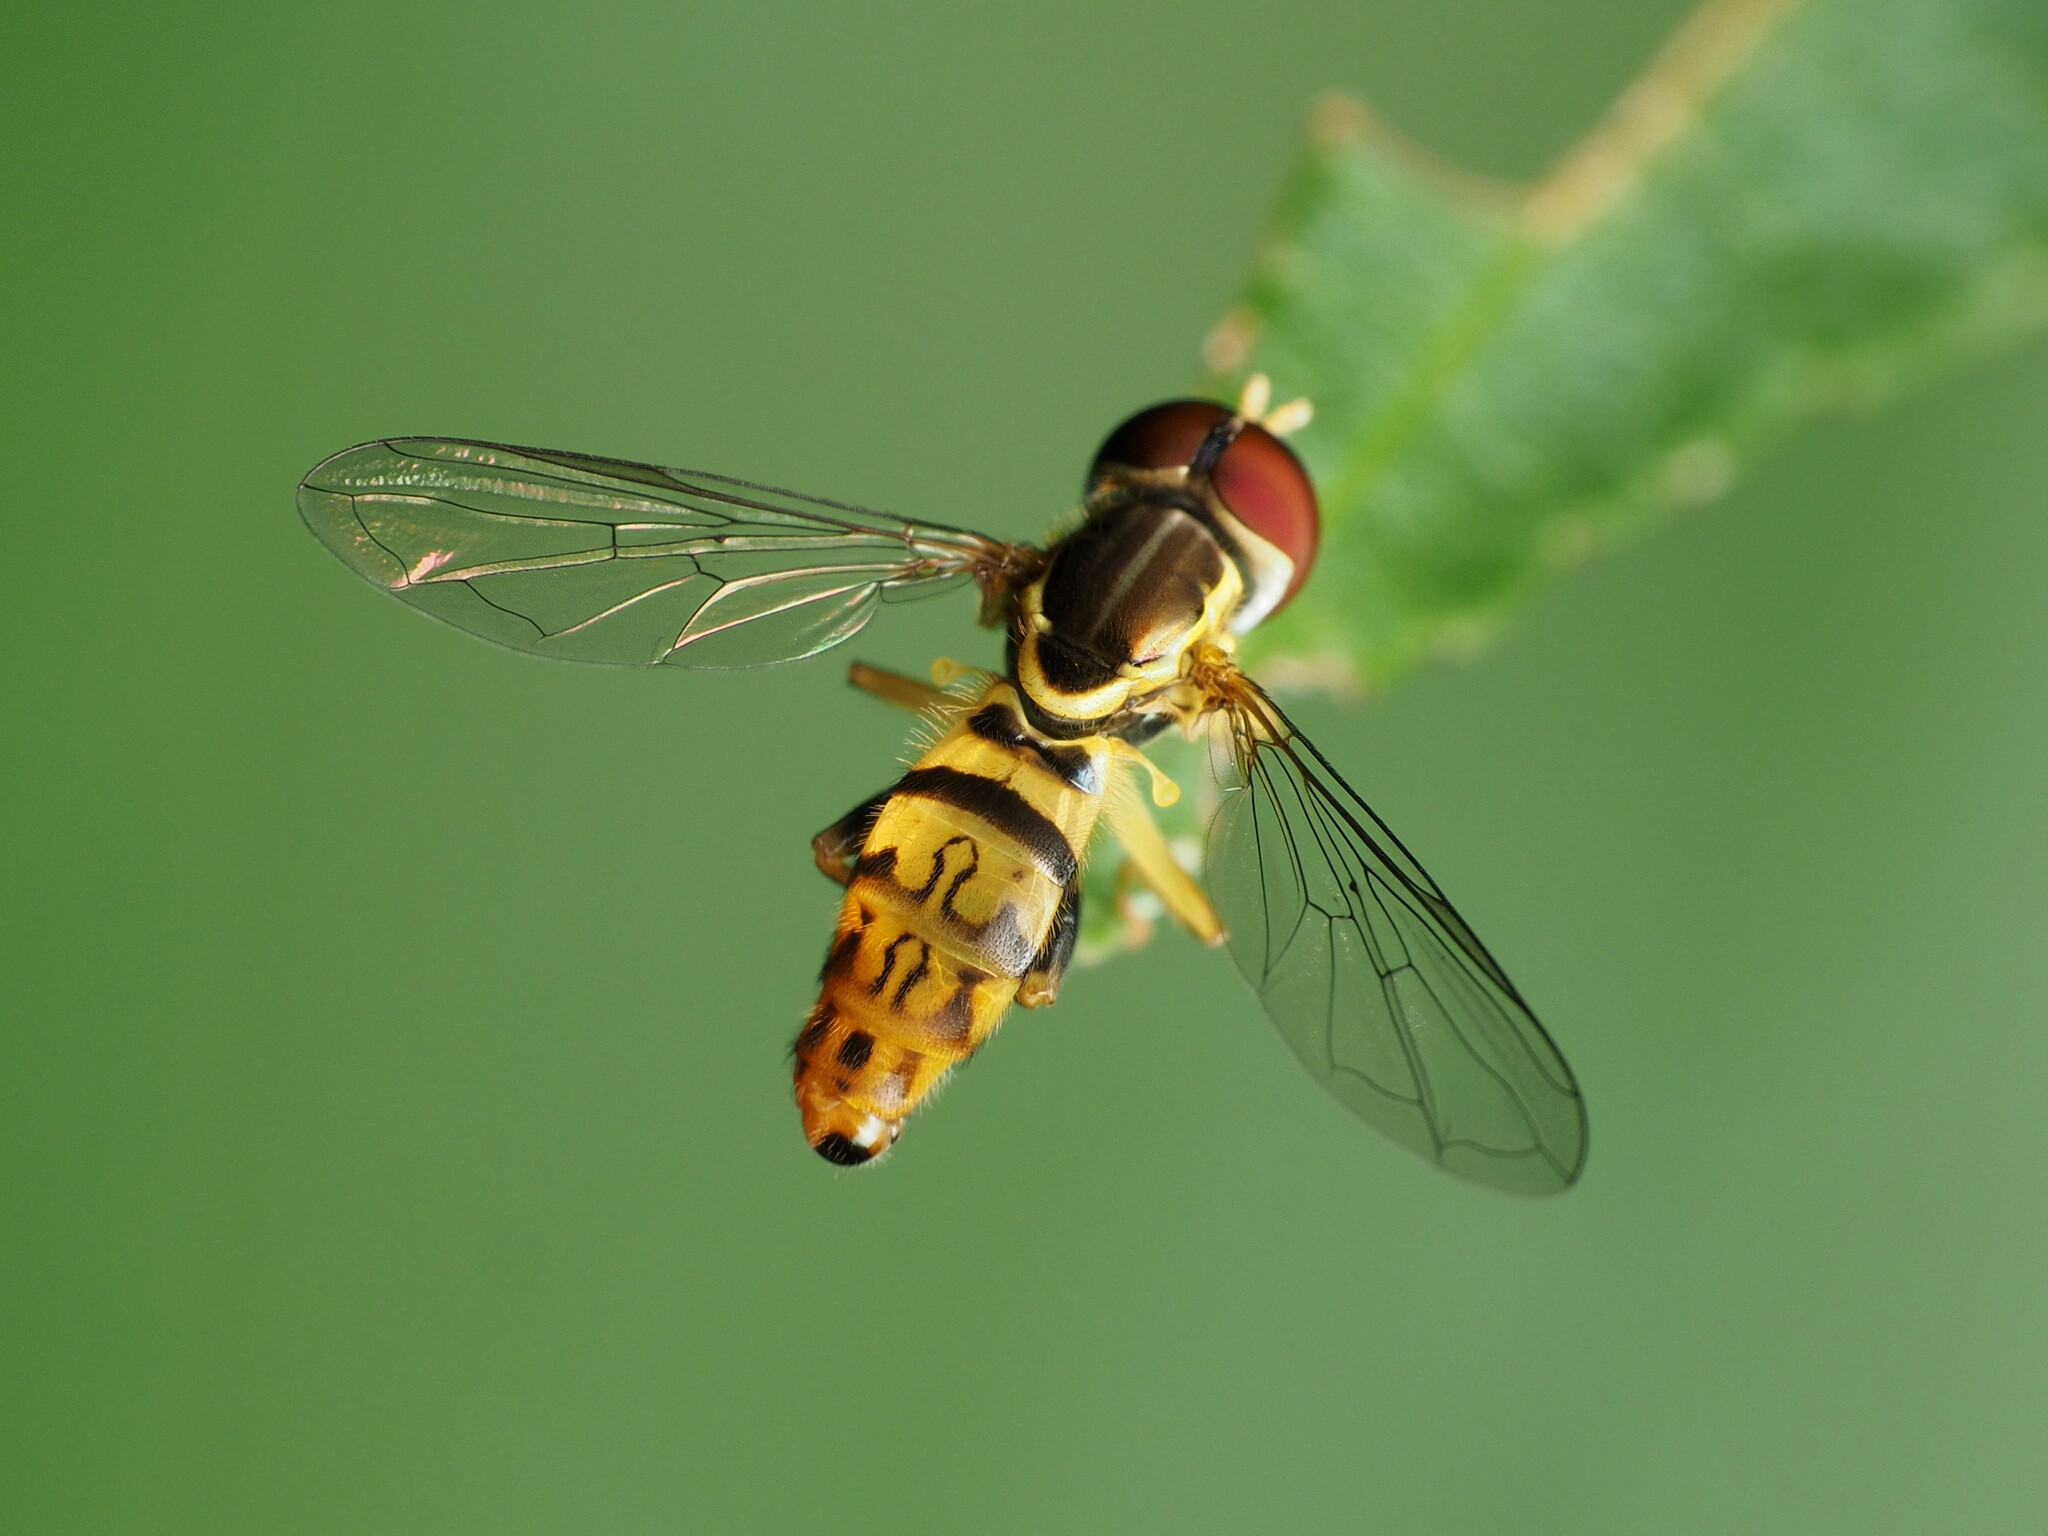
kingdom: Animalia
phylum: Arthropoda
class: Insecta
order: Diptera
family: Syrphidae
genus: Toxomerus
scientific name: Toxomerus geminatus
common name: Eastern calligrapher
